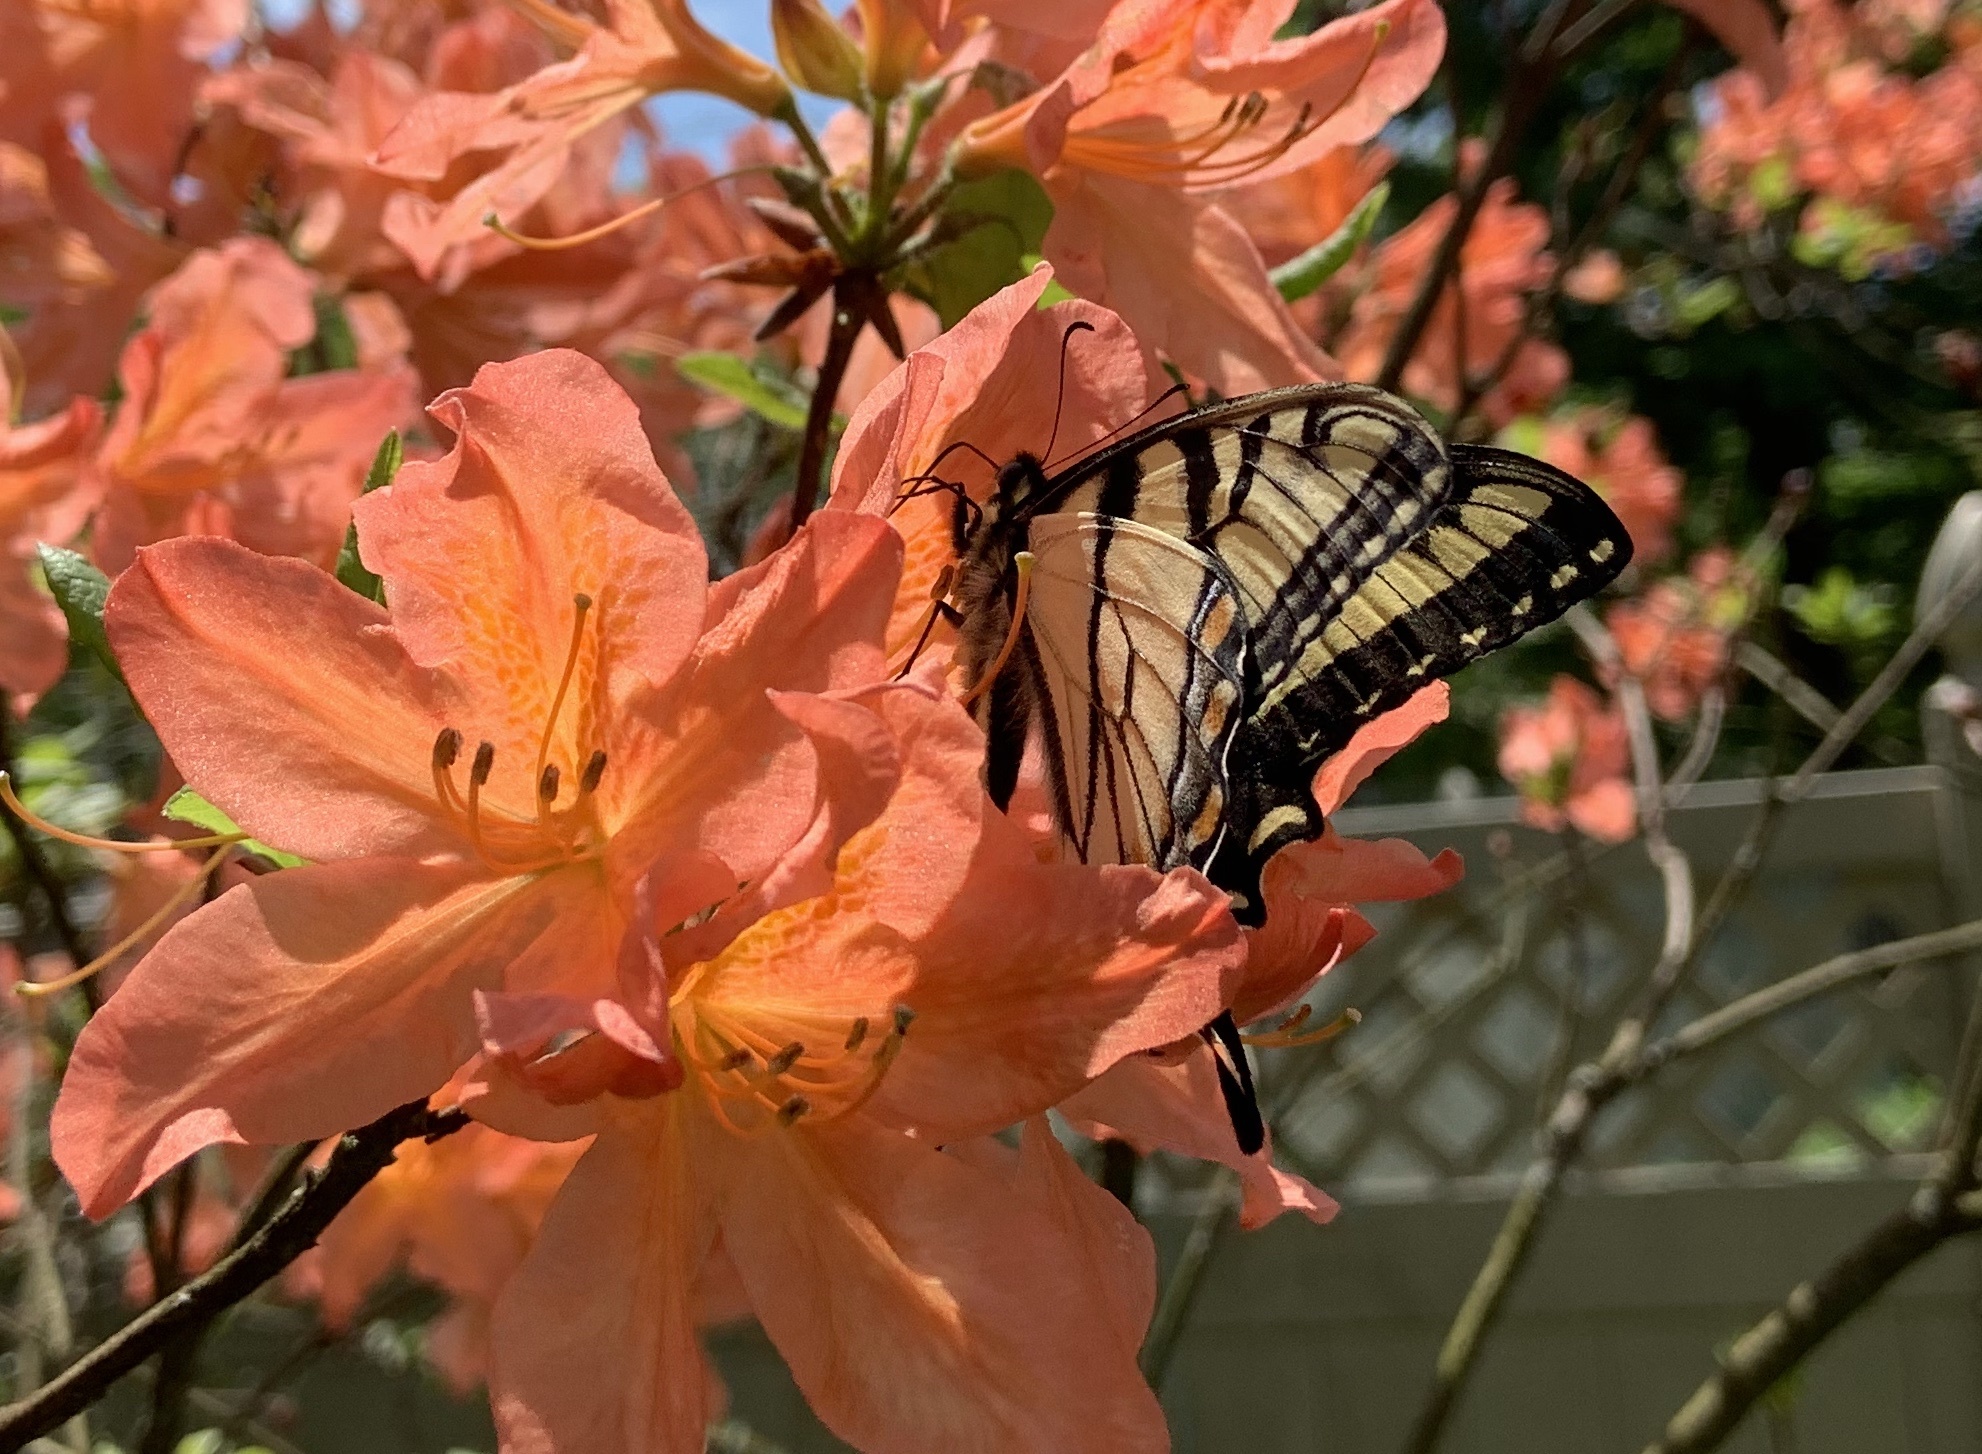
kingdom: Animalia
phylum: Arthropoda
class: Insecta
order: Lepidoptera
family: Papilionidae
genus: Papilio
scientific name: Papilio glaucus
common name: Tiger swallowtail
